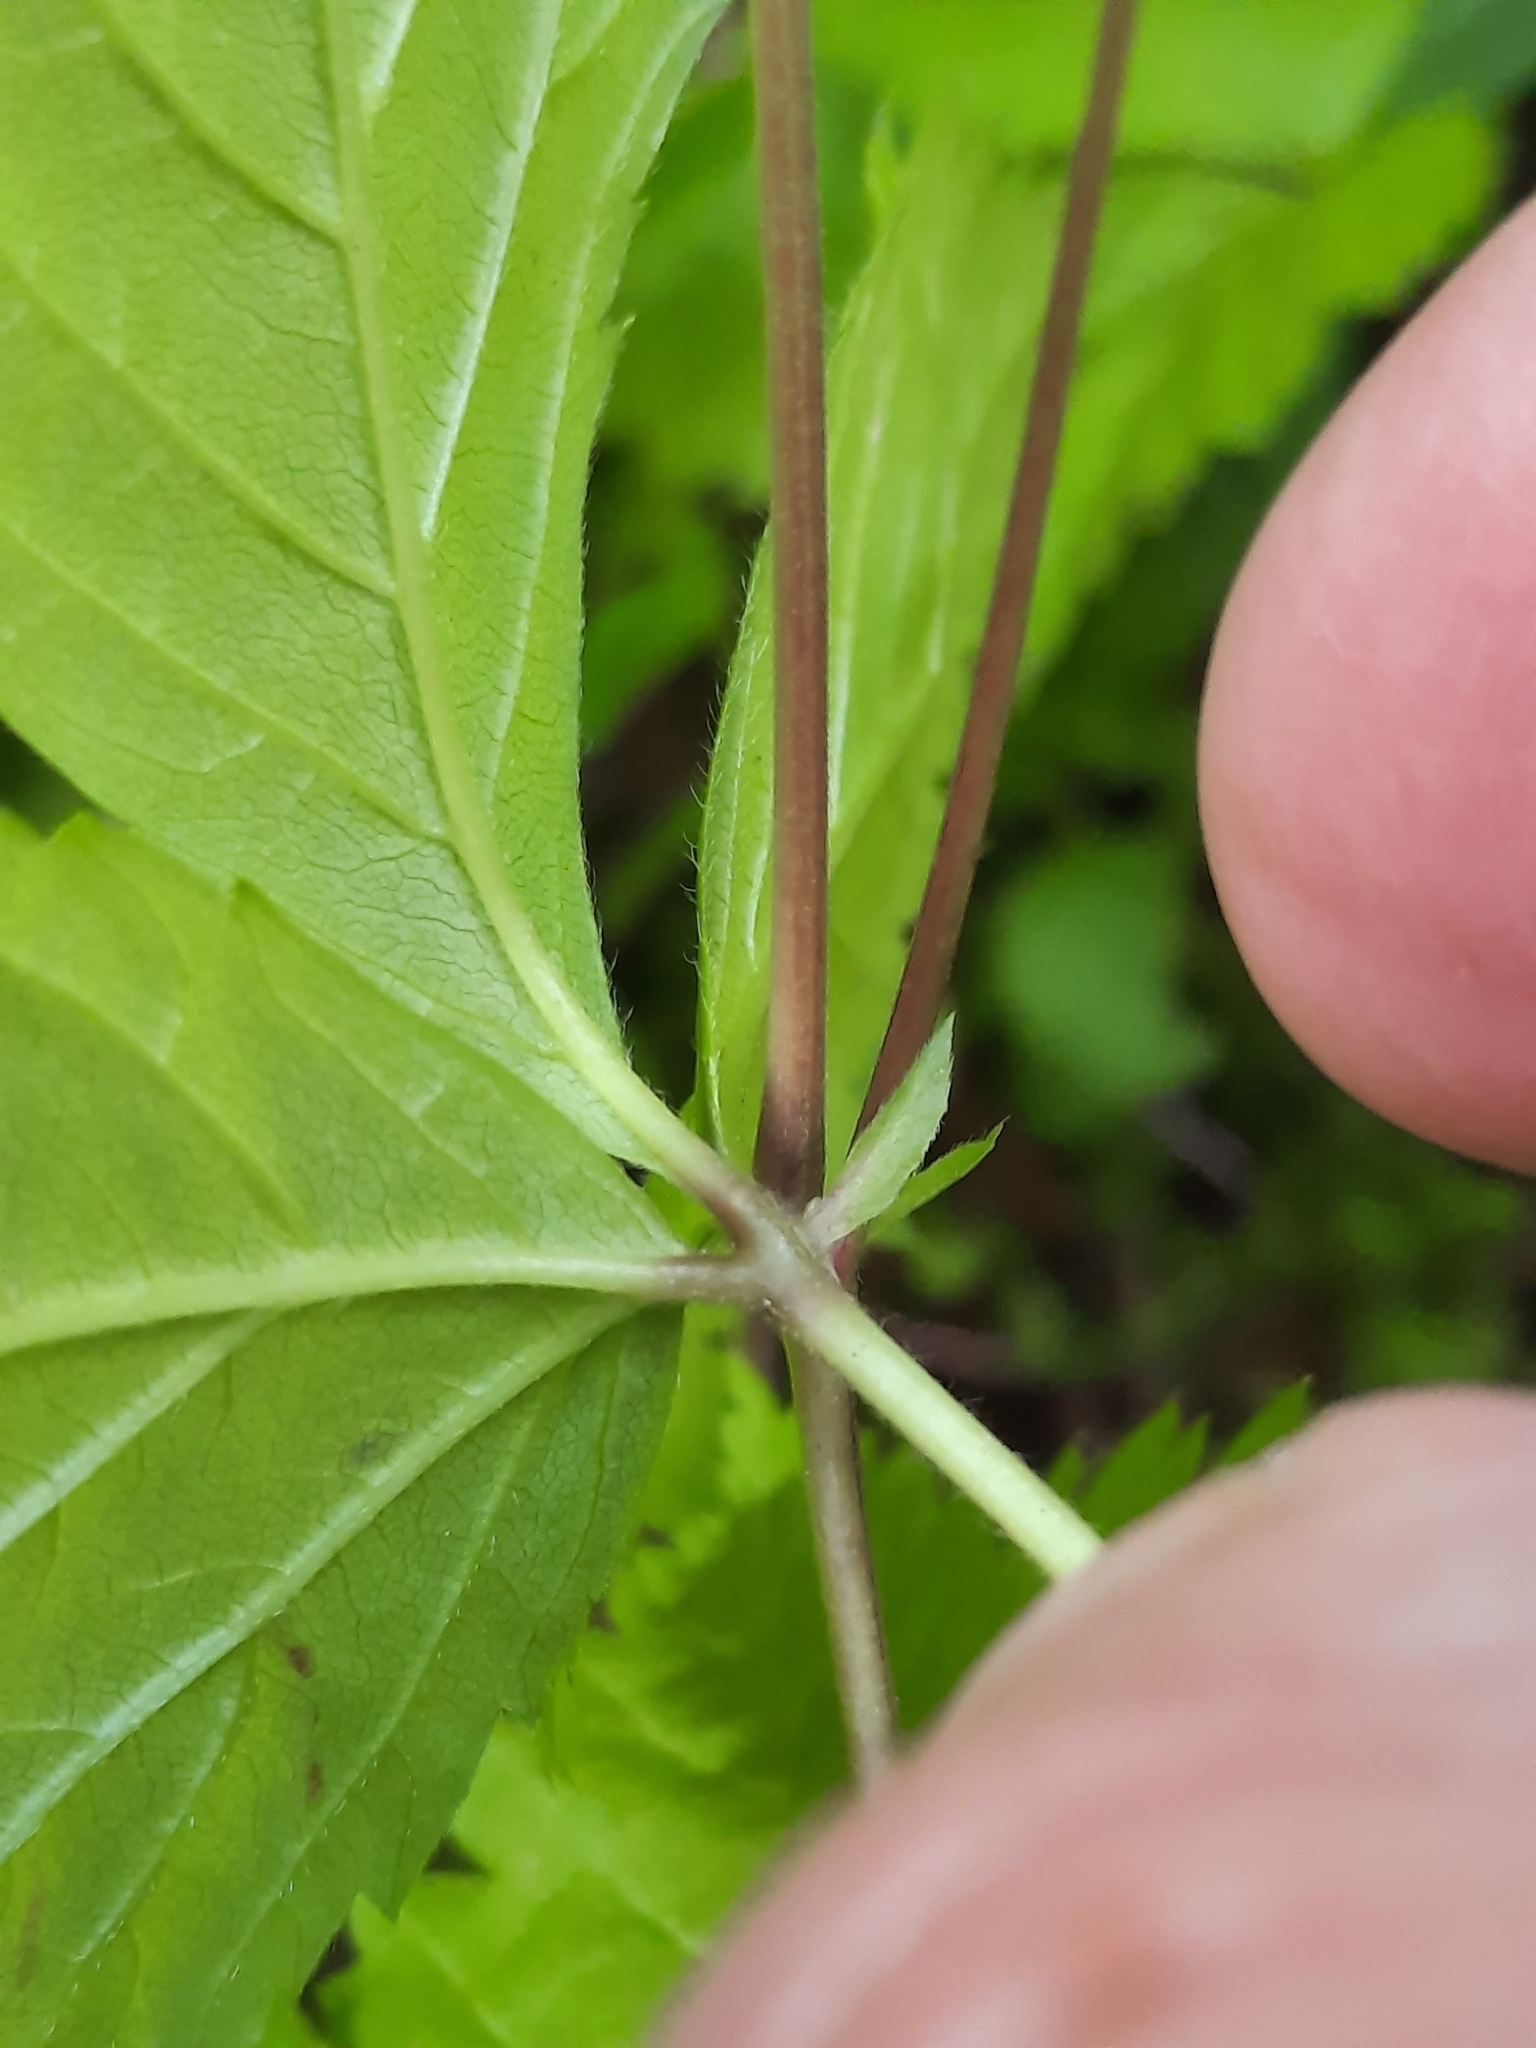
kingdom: Plantae
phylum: Tracheophyta
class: Magnoliopsida
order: Rosales
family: Rosaceae
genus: Rubus
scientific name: Rubus pubescens
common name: Dwarf raspberry
